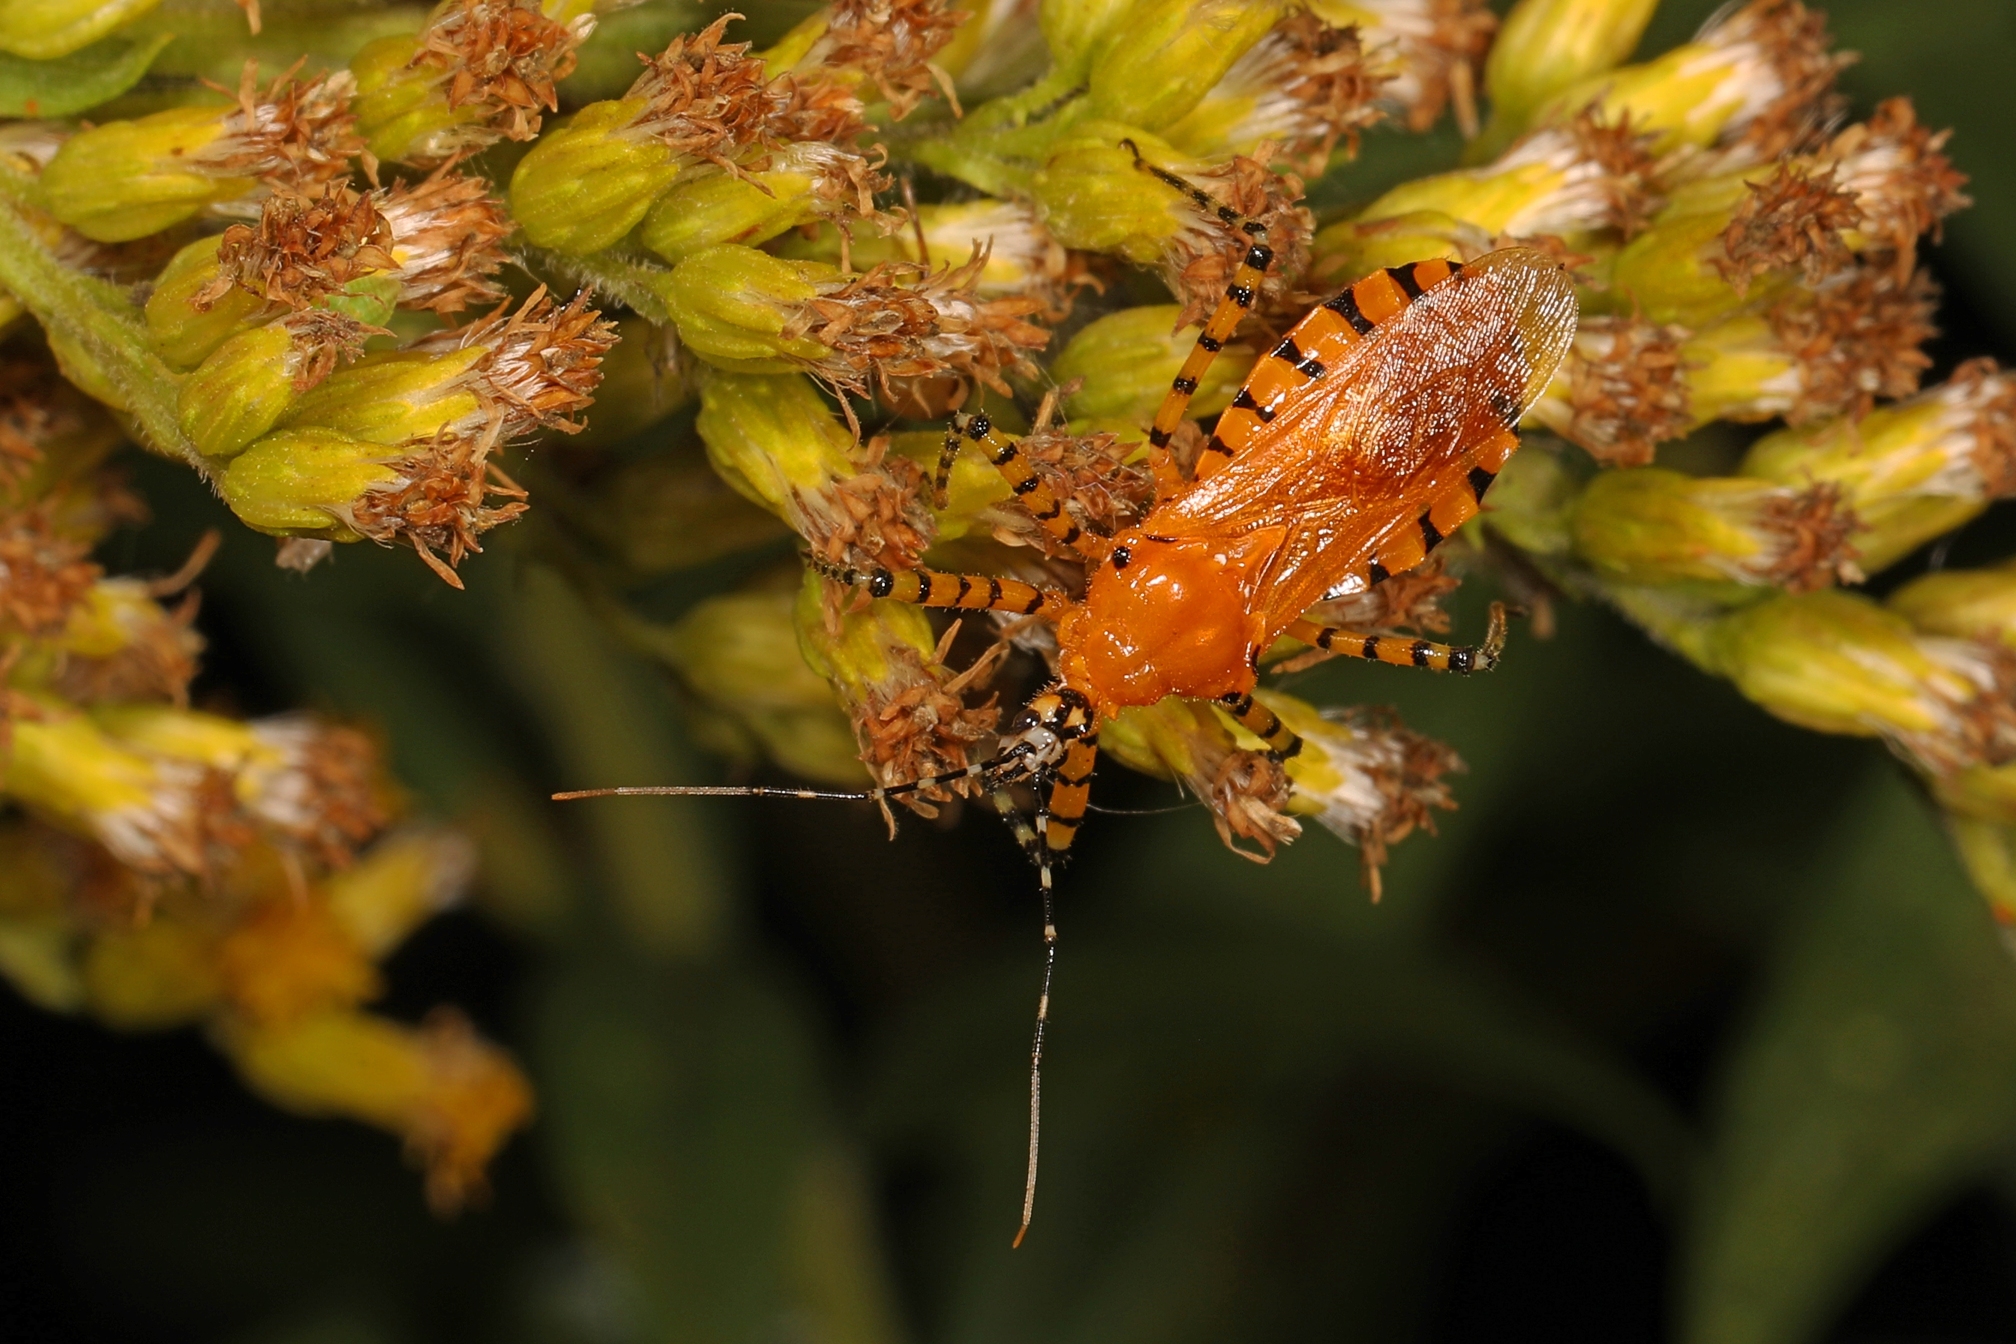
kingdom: Animalia
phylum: Arthropoda
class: Insecta
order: Hemiptera
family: Reduviidae
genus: Pselliopus
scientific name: Pselliopus barberi
